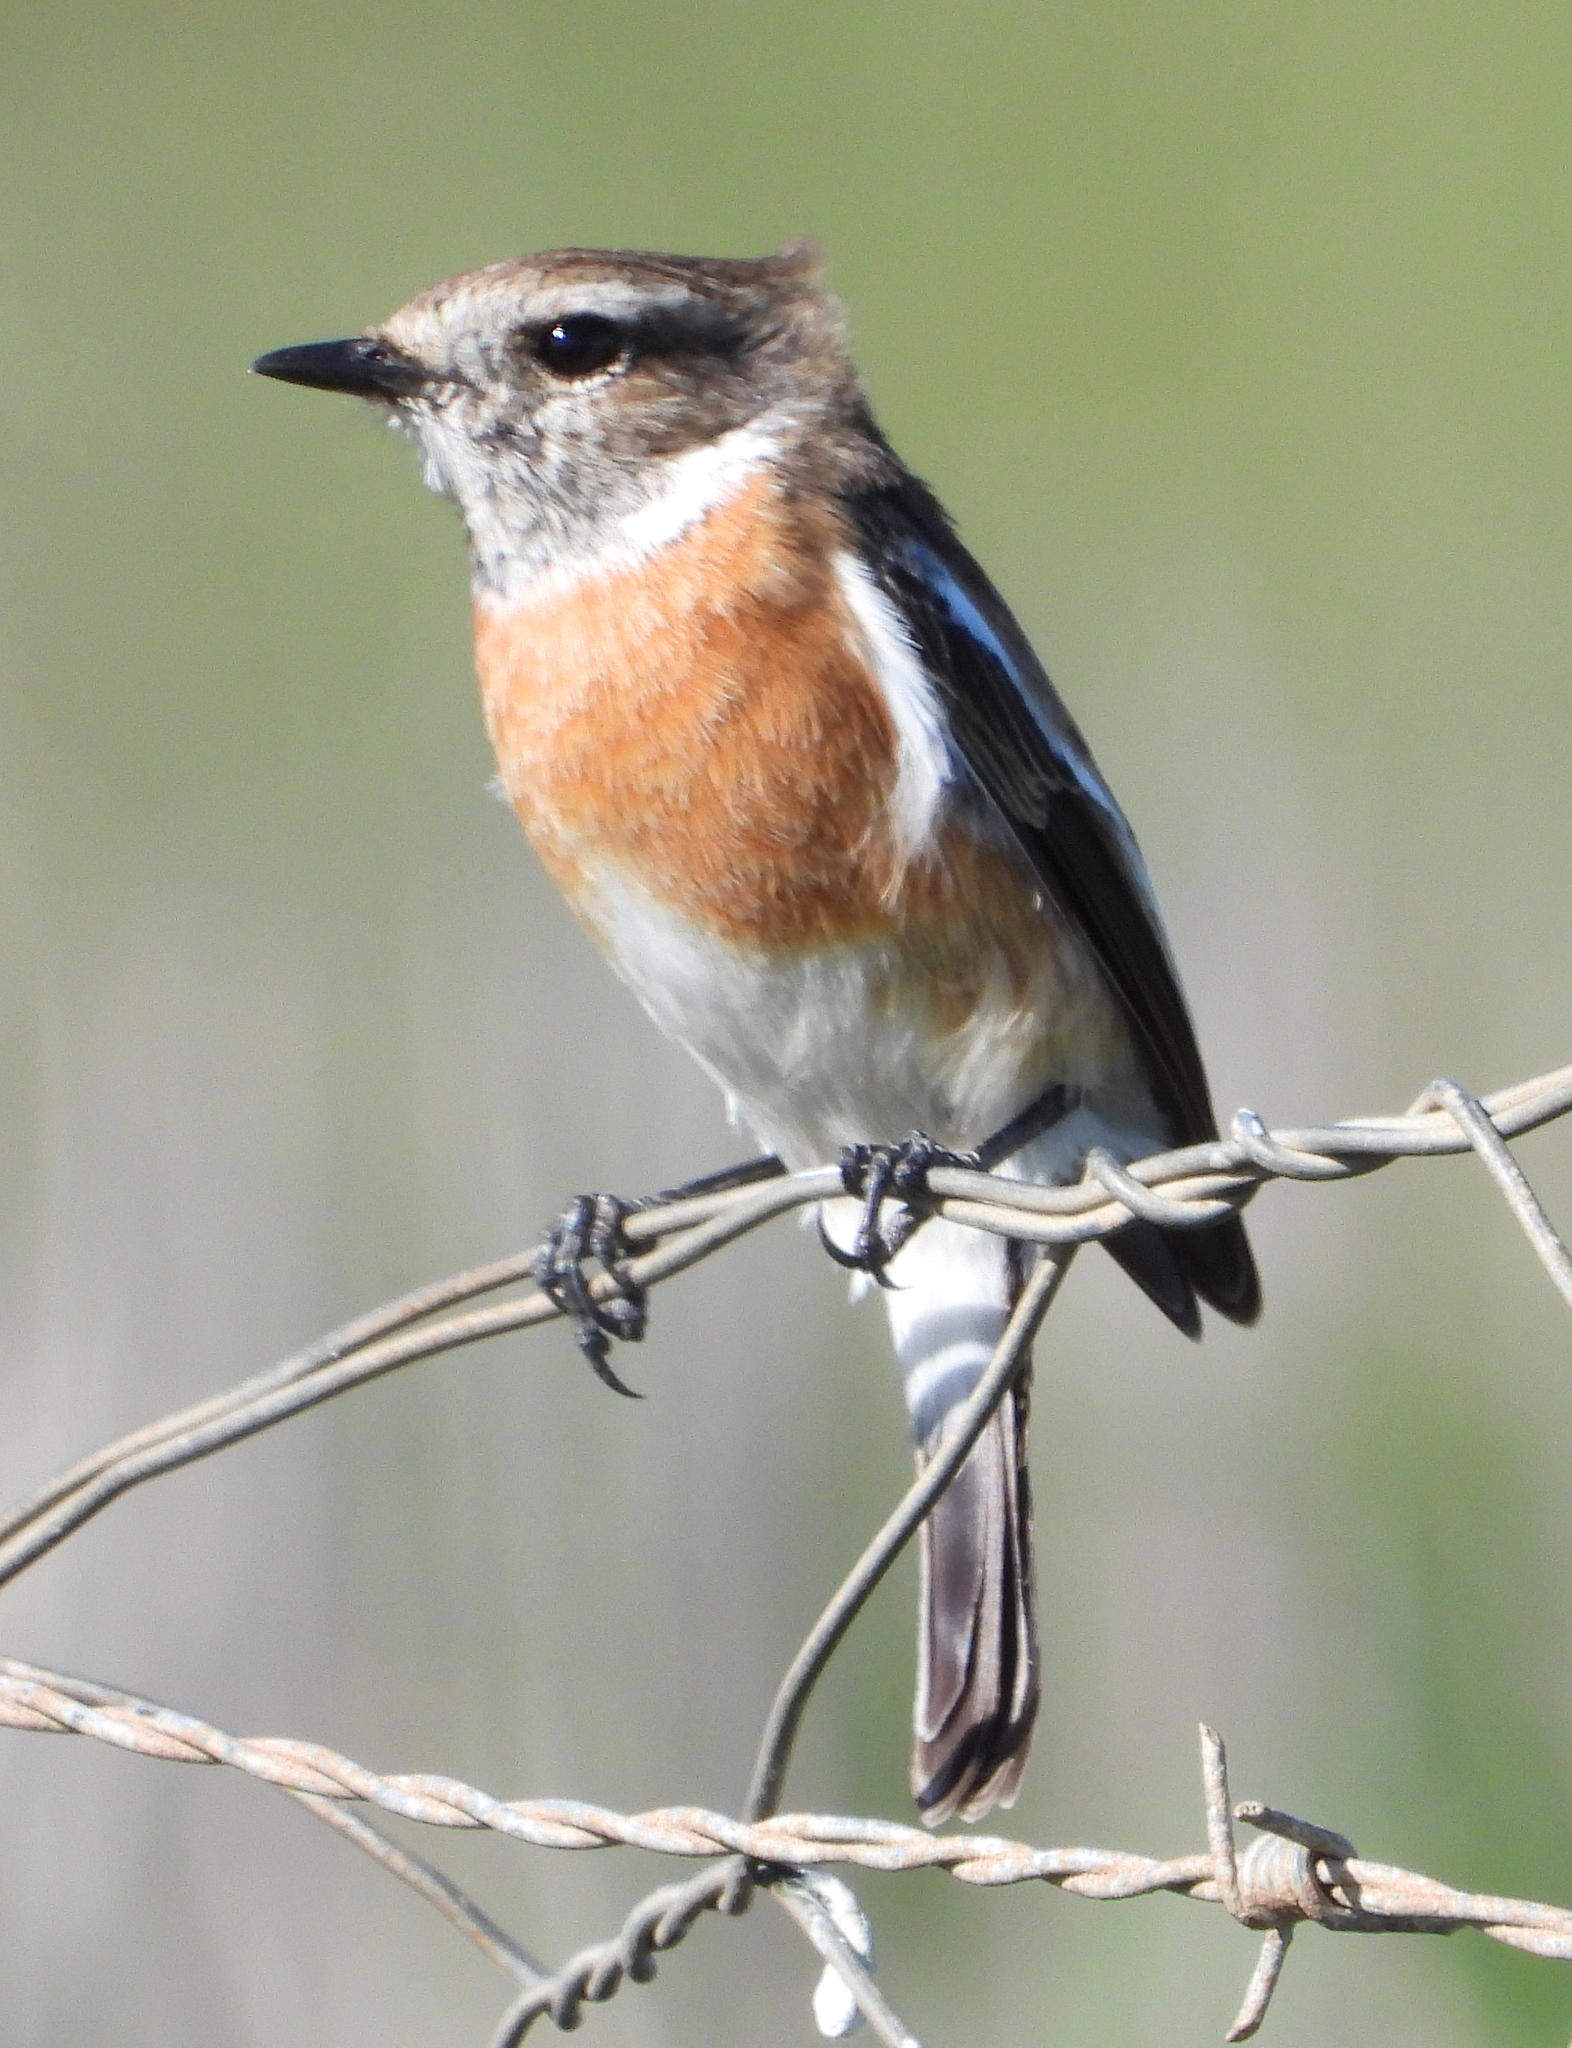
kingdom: Animalia
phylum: Chordata
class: Aves
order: Passeriformes
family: Muscicapidae
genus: Saxicola
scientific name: Saxicola torquatus
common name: African stonechat
